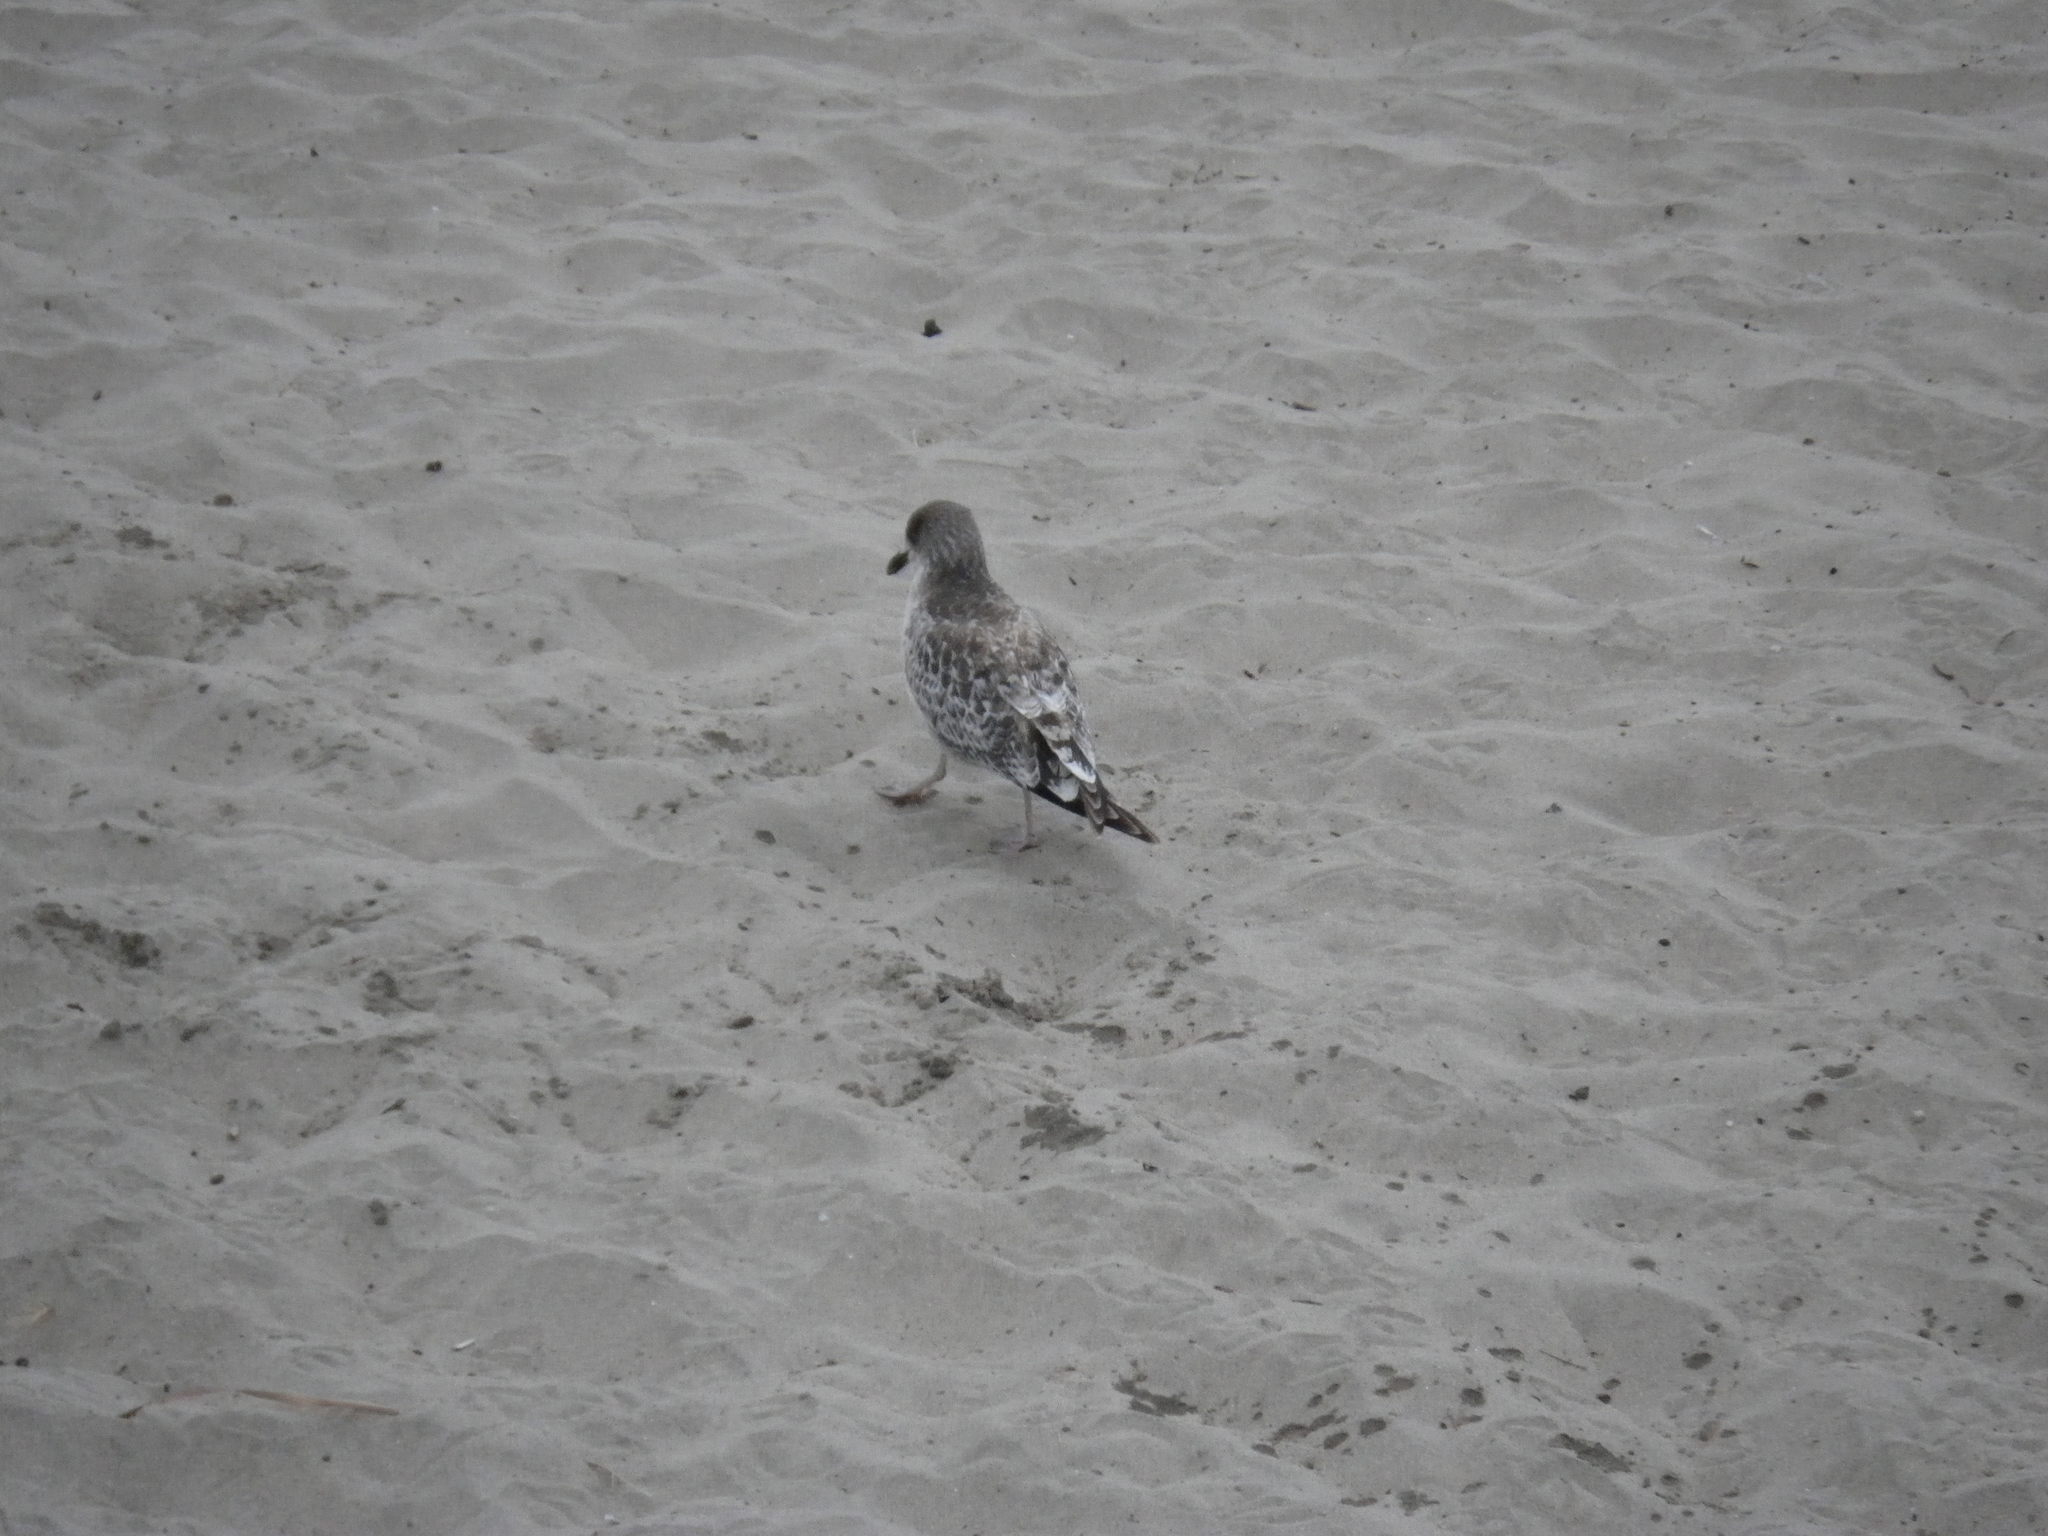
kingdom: Animalia
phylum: Chordata
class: Aves
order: Charadriiformes
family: Laridae
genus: Larus
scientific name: Larus californicus
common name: California gull
